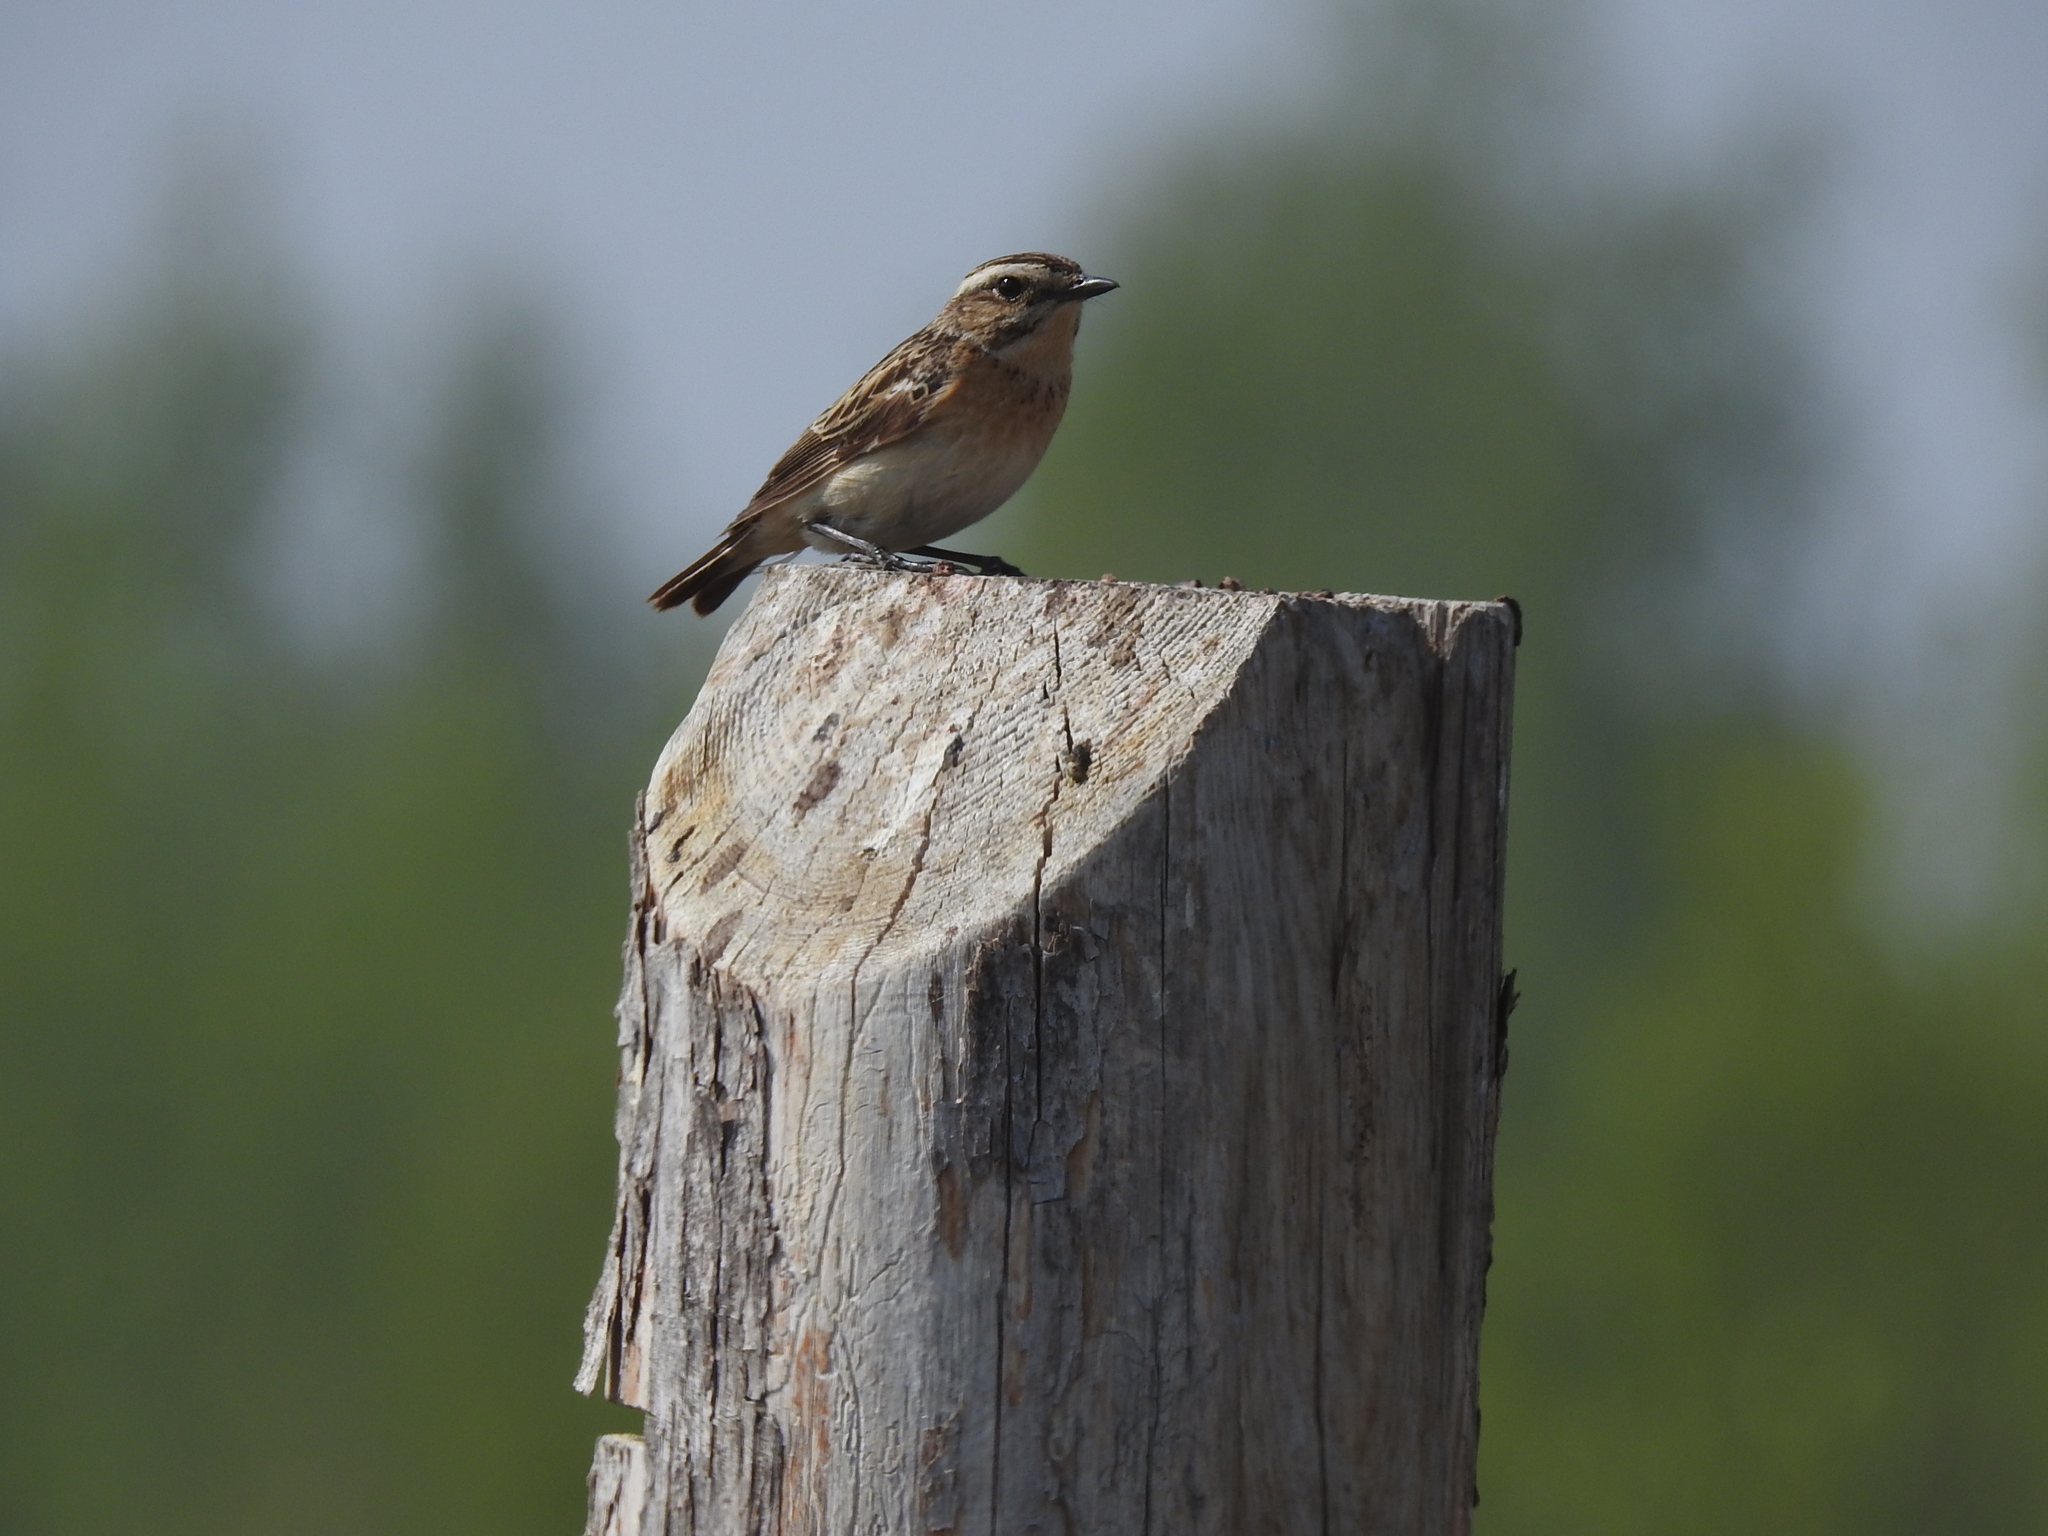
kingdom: Animalia
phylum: Chordata
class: Aves
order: Passeriformes
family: Muscicapidae
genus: Saxicola
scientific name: Saxicola rubetra
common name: Whinchat
